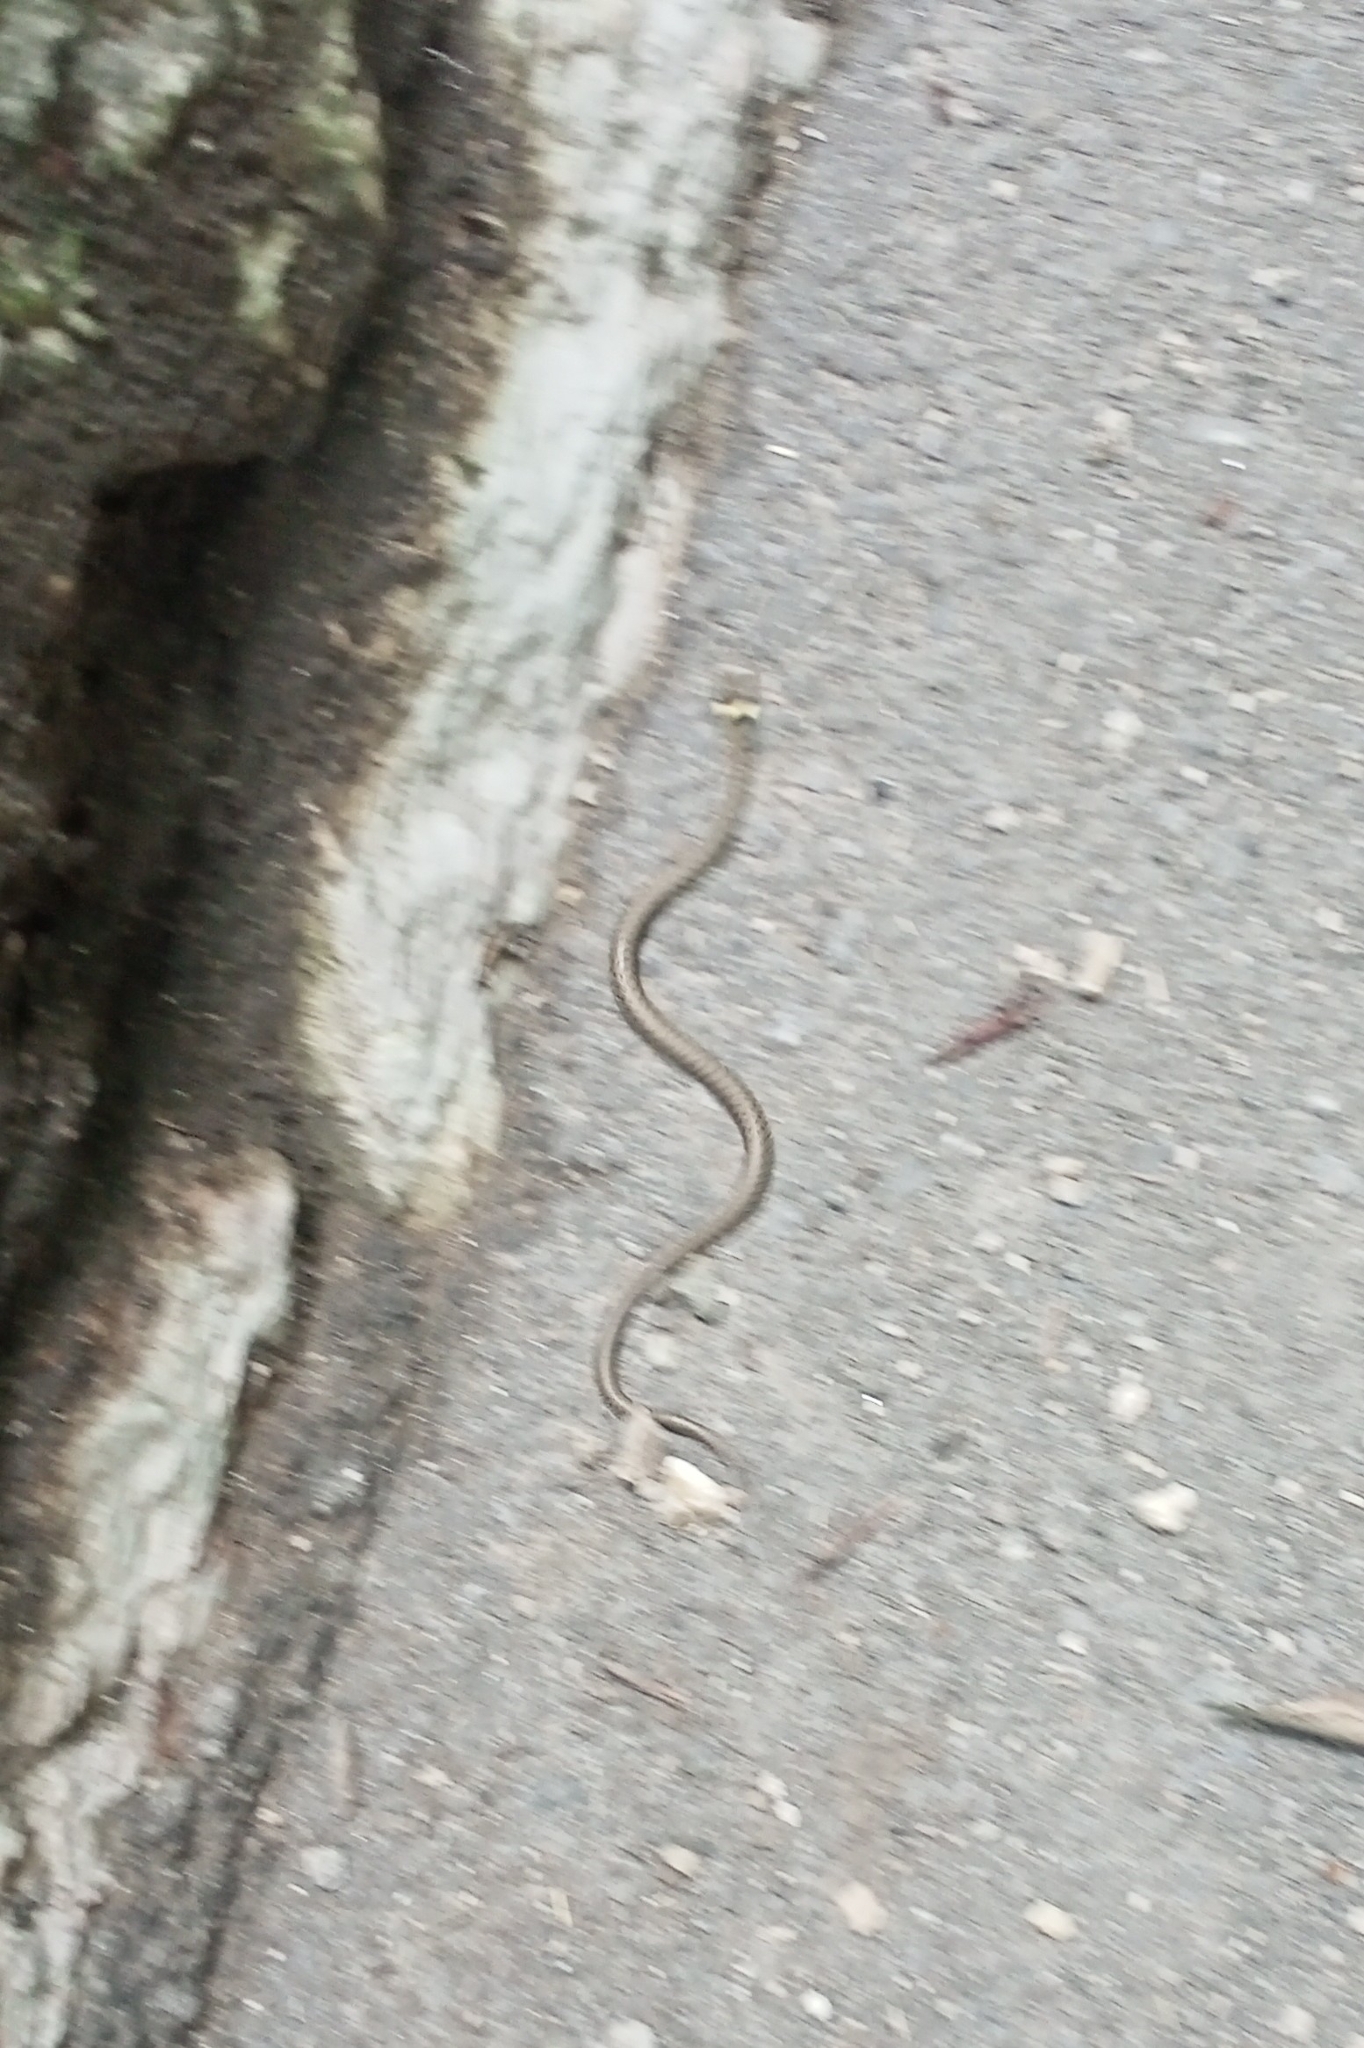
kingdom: Animalia
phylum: Chordata
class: Squamata
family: Colubridae
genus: Natrix
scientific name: Natrix natrix
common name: Grass snake
